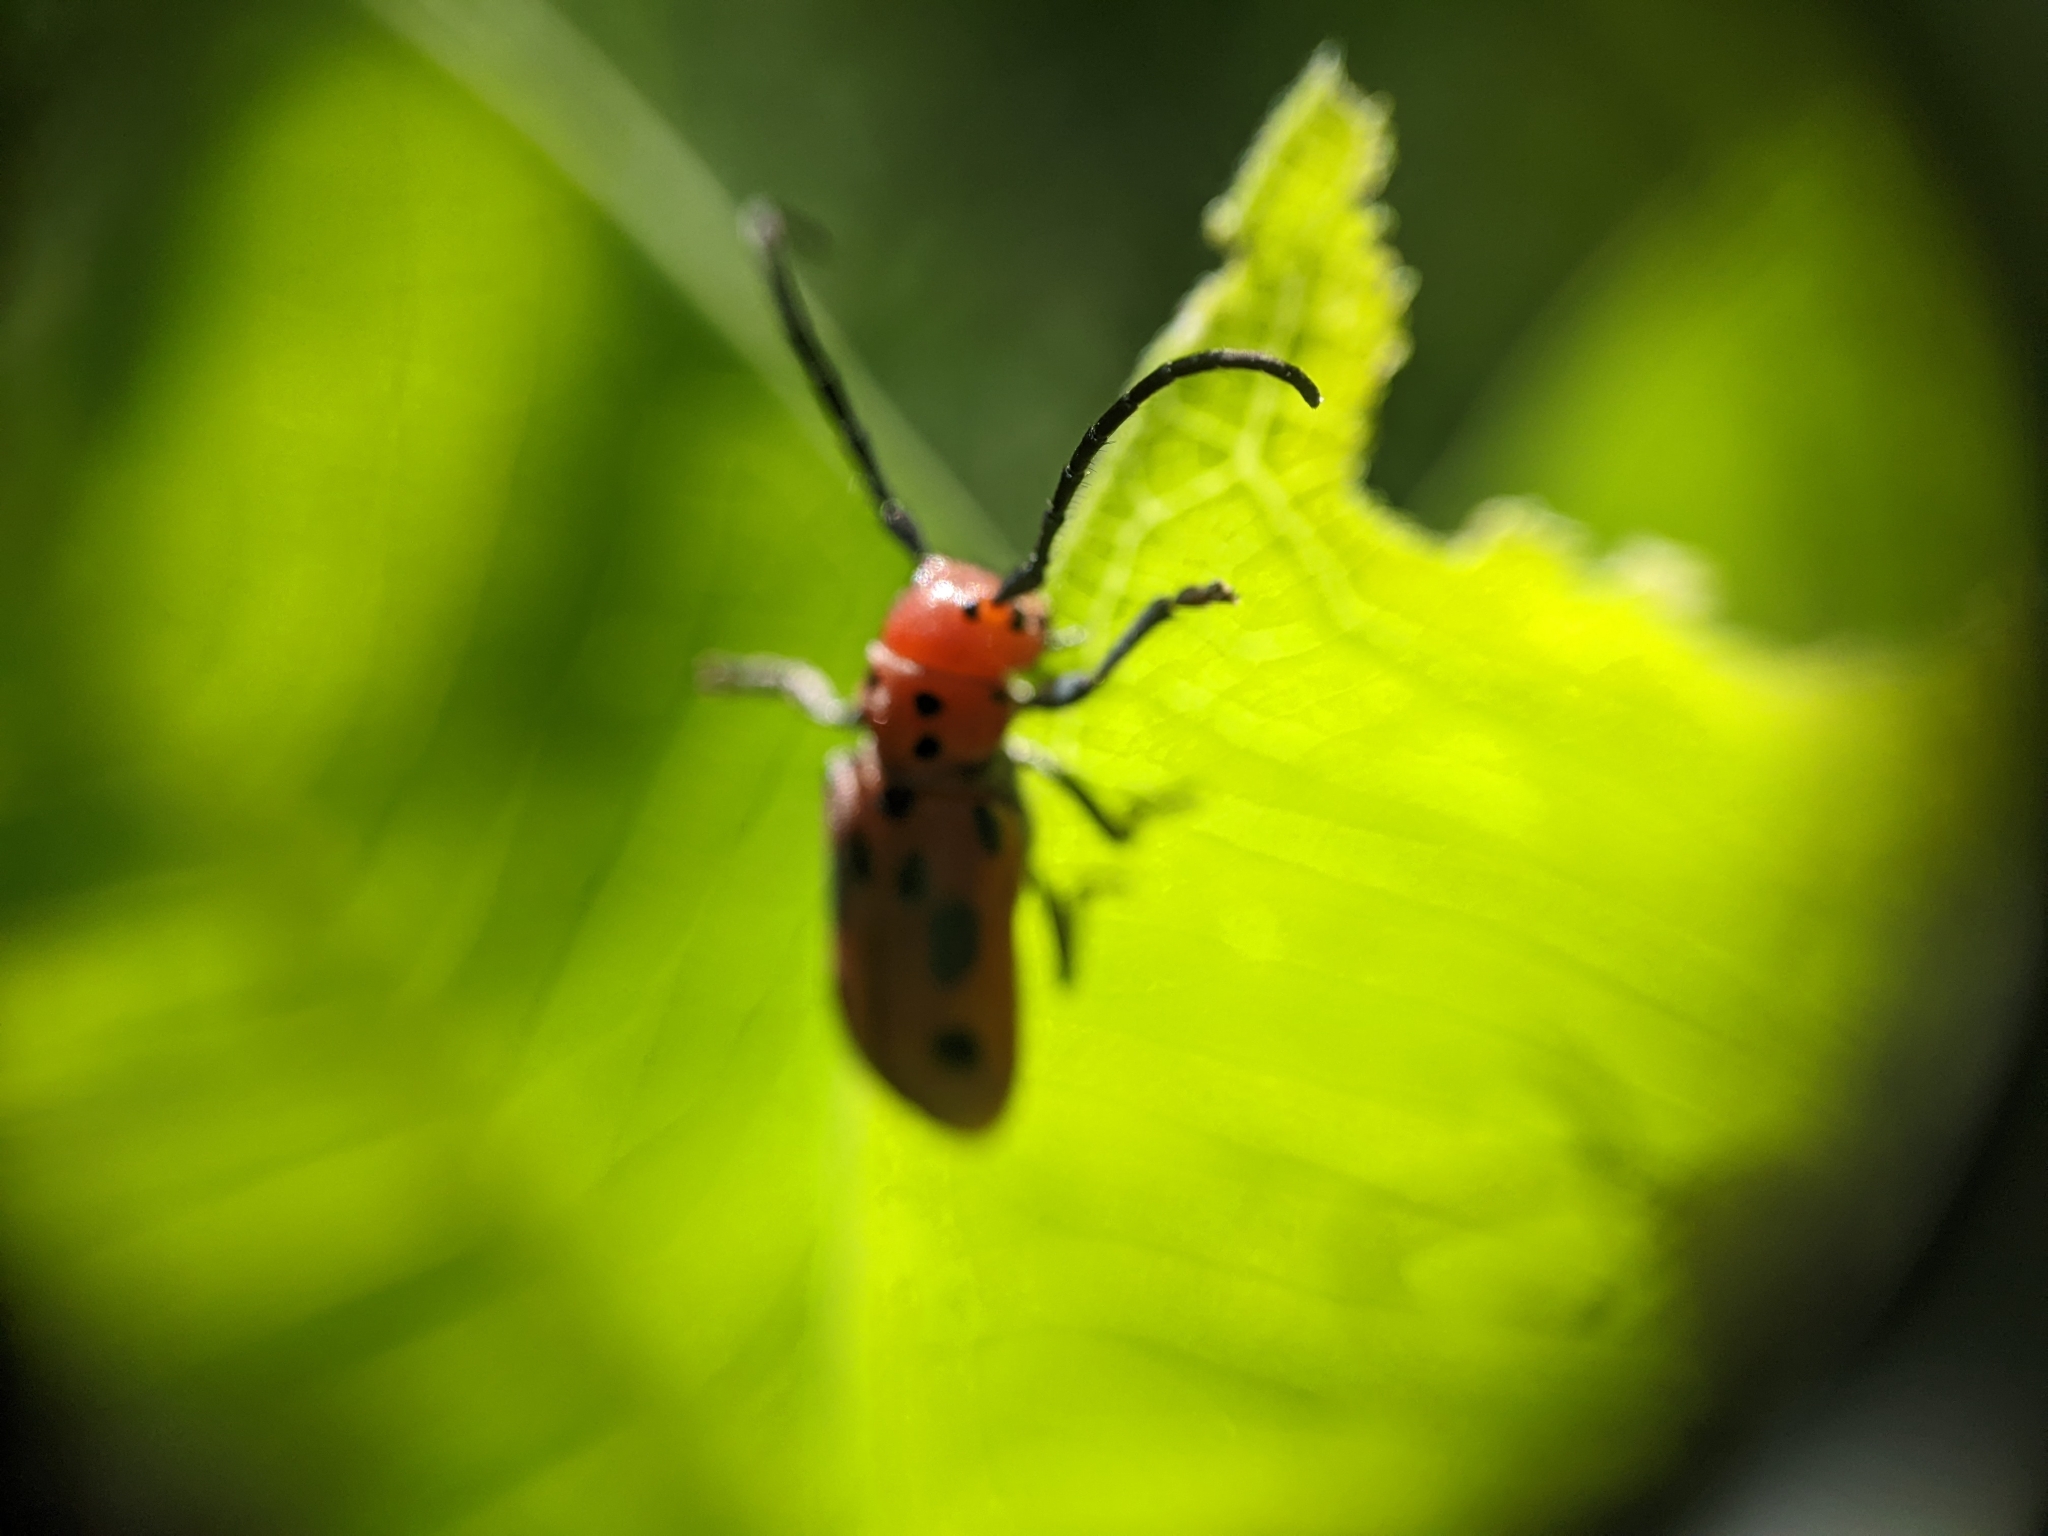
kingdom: Animalia
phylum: Arthropoda
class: Insecta
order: Coleoptera
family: Cerambycidae
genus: Tetraopes
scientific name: Tetraopes tetrophthalmus
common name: Red milkweed beetle
